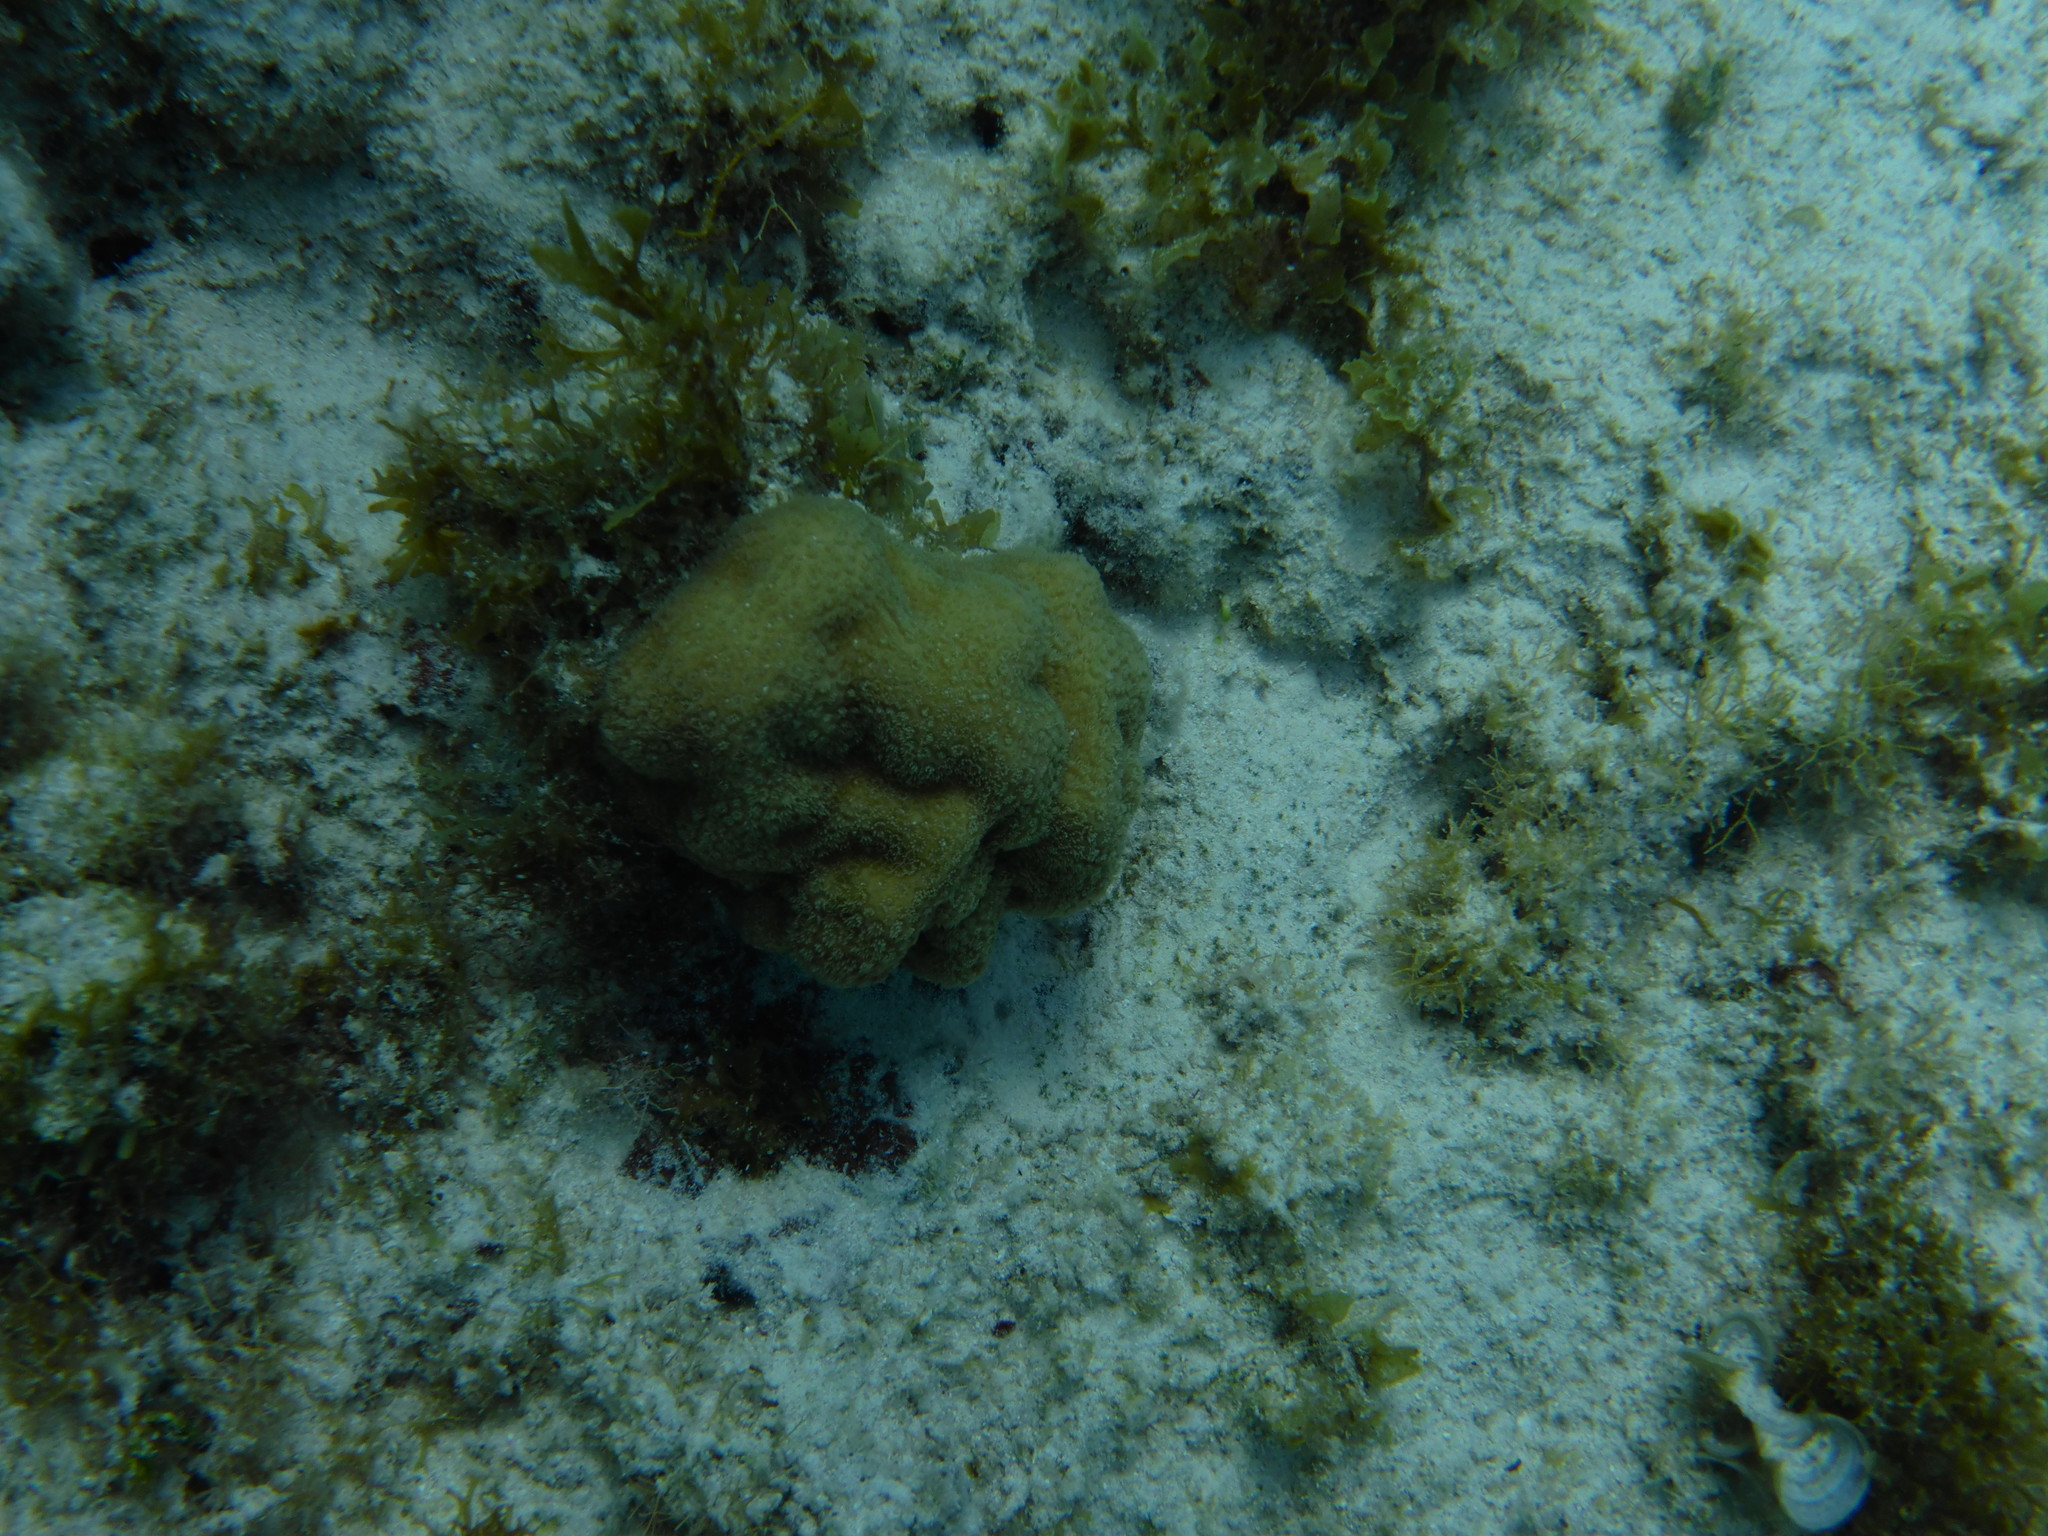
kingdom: Animalia
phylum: Cnidaria
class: Anthozoa
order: Scleractinia
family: Poritidae
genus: Porites
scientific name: Porites astreoides
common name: Mustard hill coral
